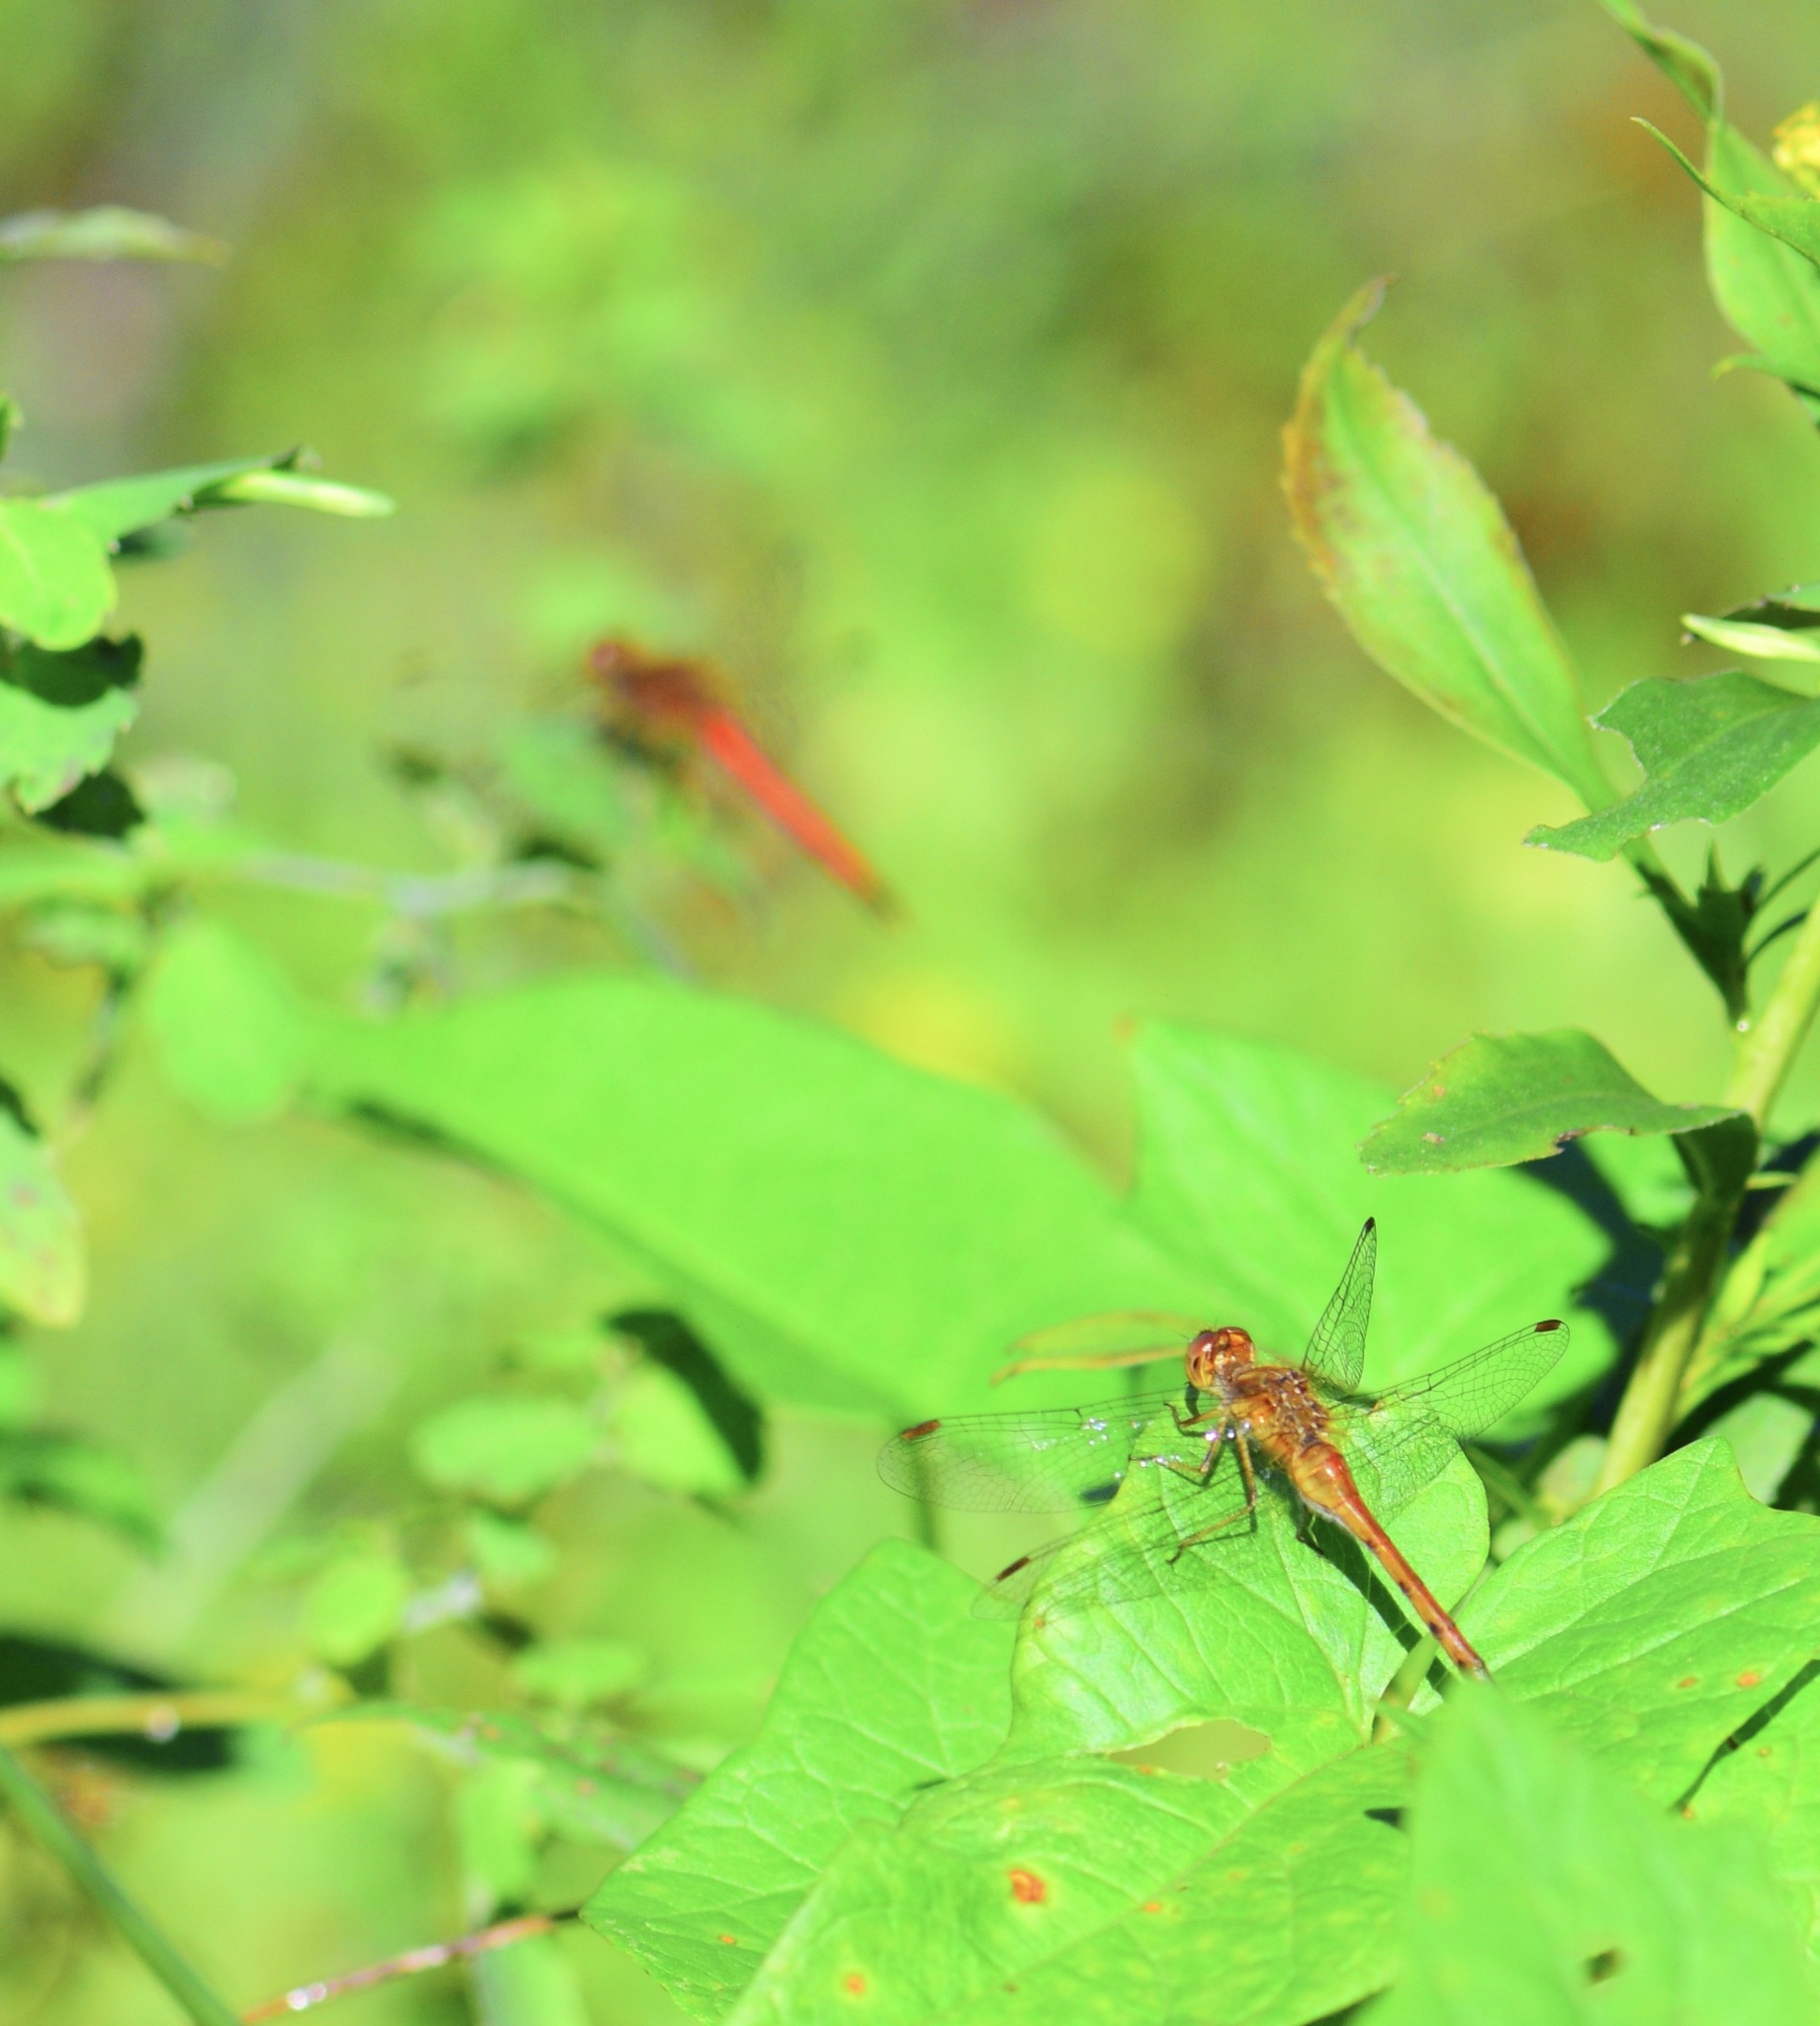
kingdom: Animalia
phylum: Arthropoda
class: Insecta
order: Odonata
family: Libellulidae
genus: Sympetrum
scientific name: Sympetrum vicinum
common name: Autumn meadowhawk
